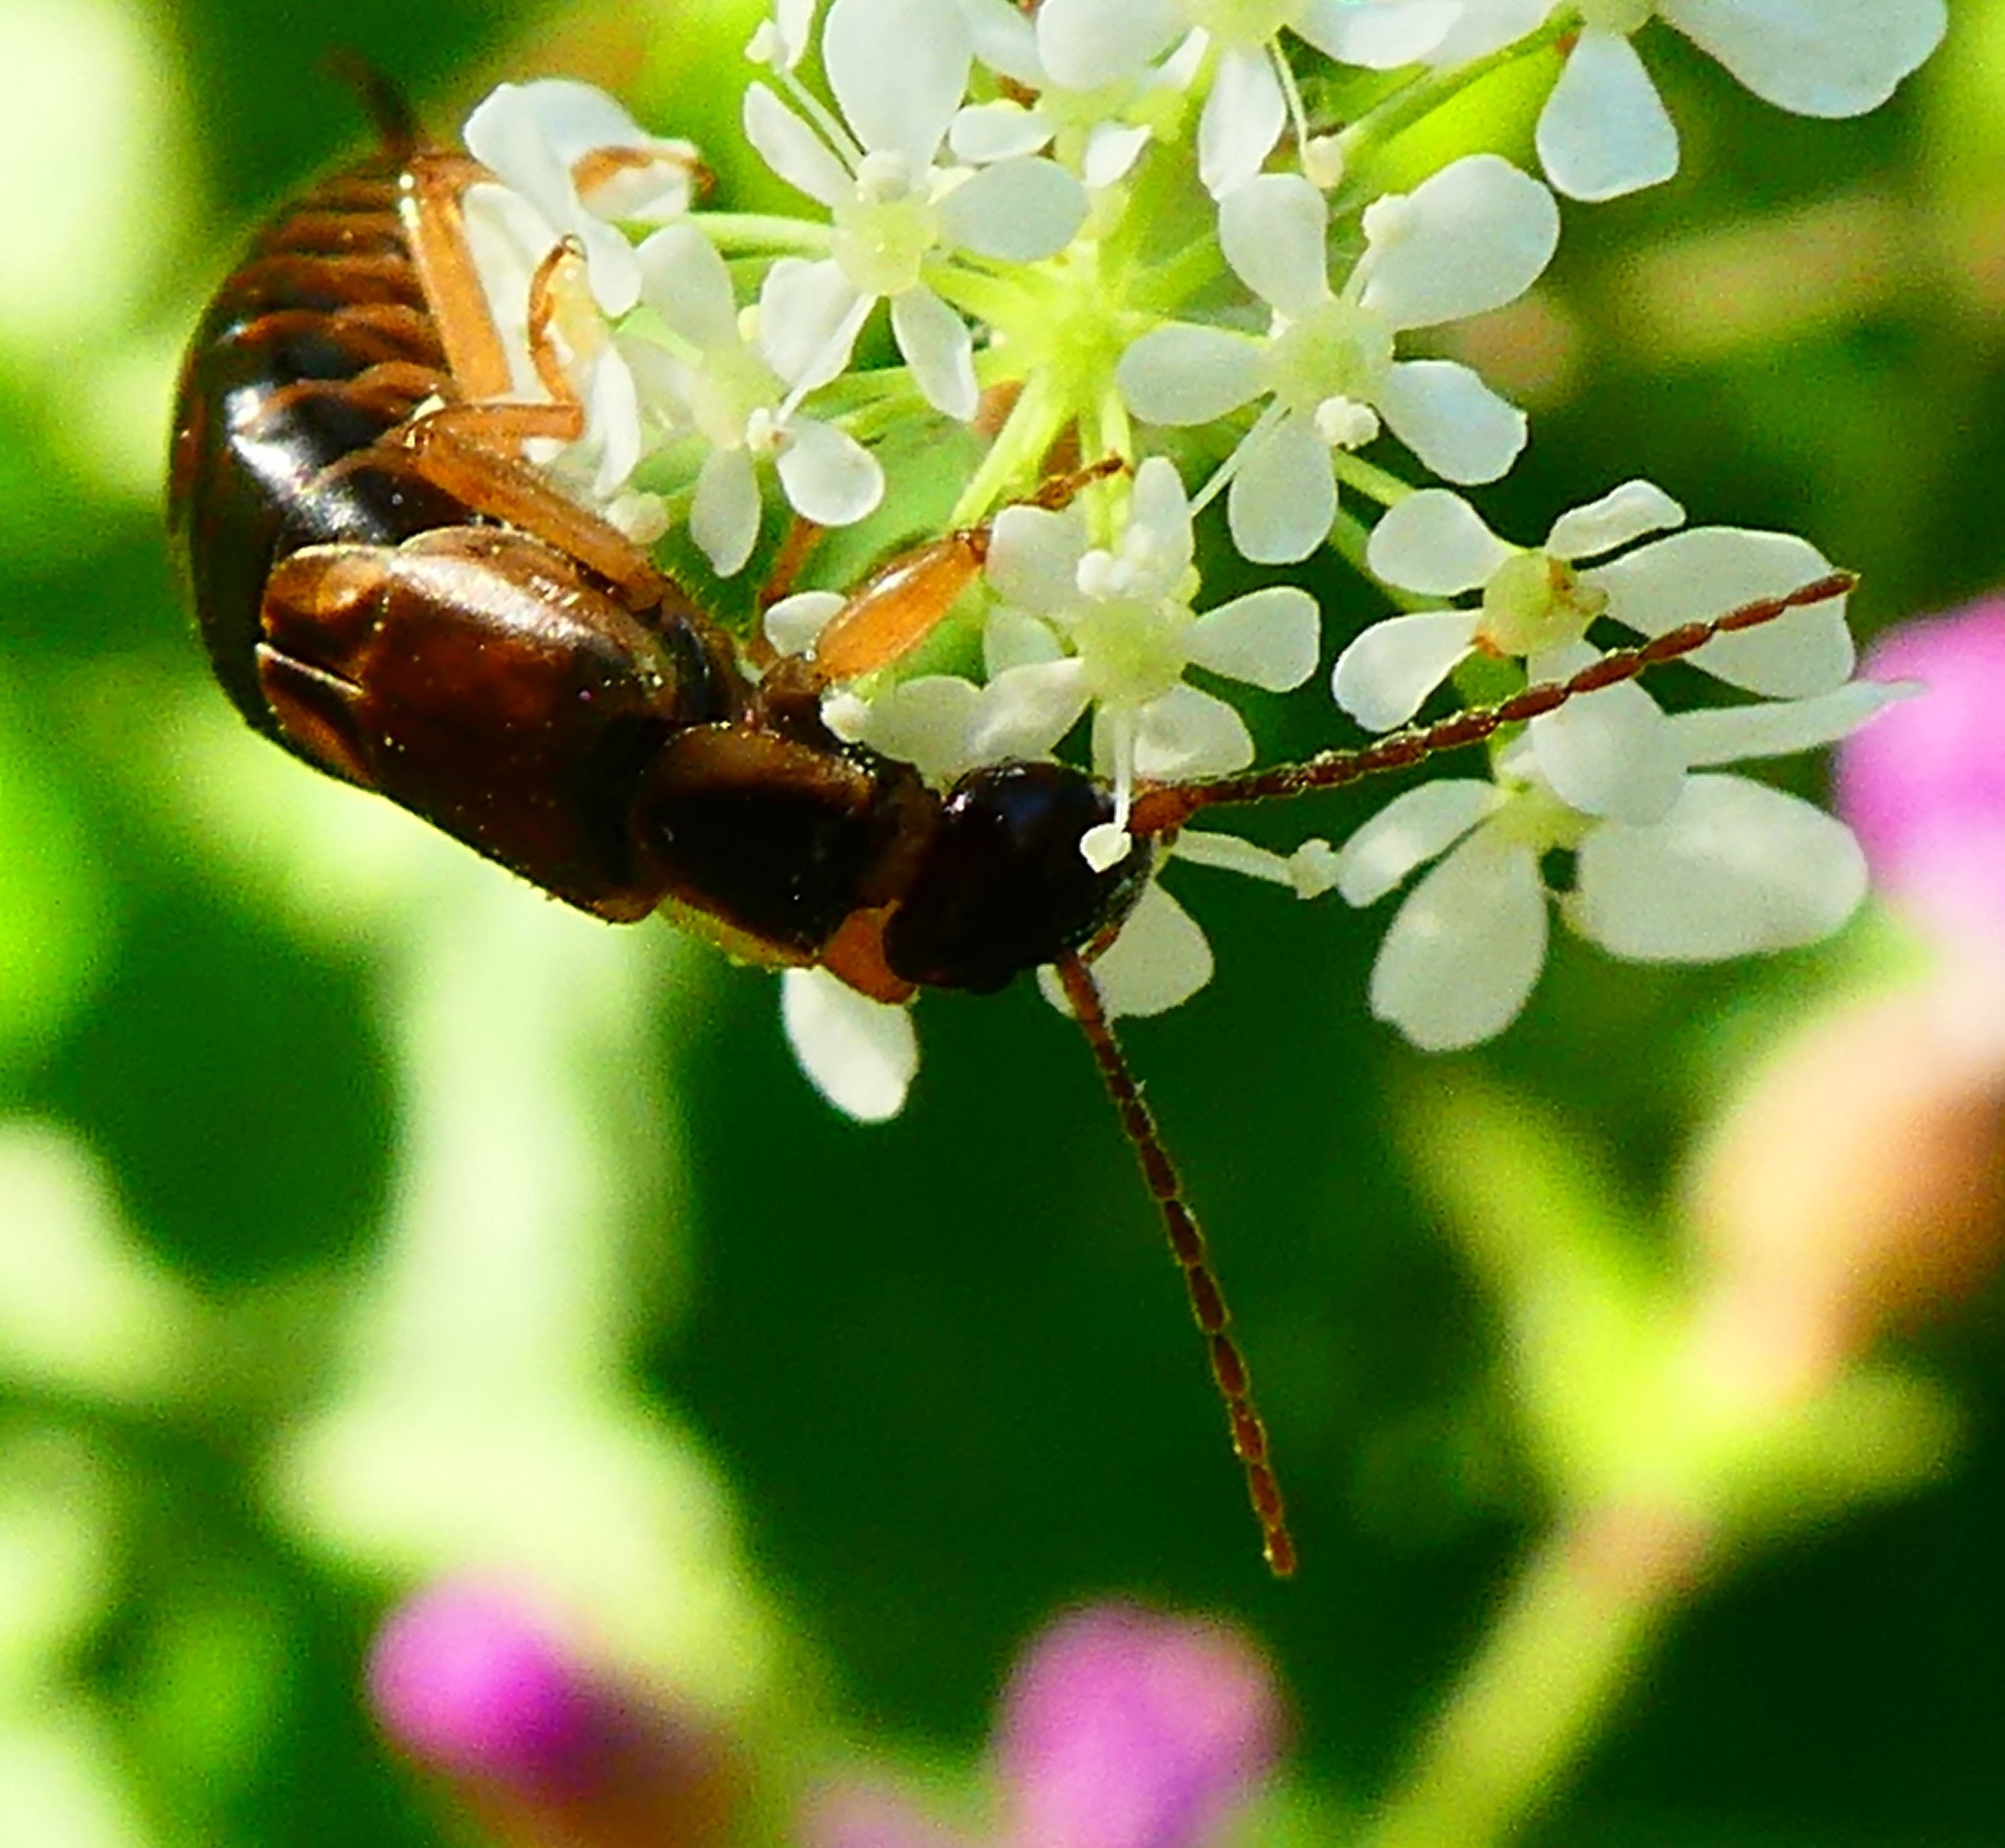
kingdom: Animalia
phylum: Arthropoda
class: Insecta
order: Dermaptera
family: Forficulidae
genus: Forficula
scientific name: Forficula
